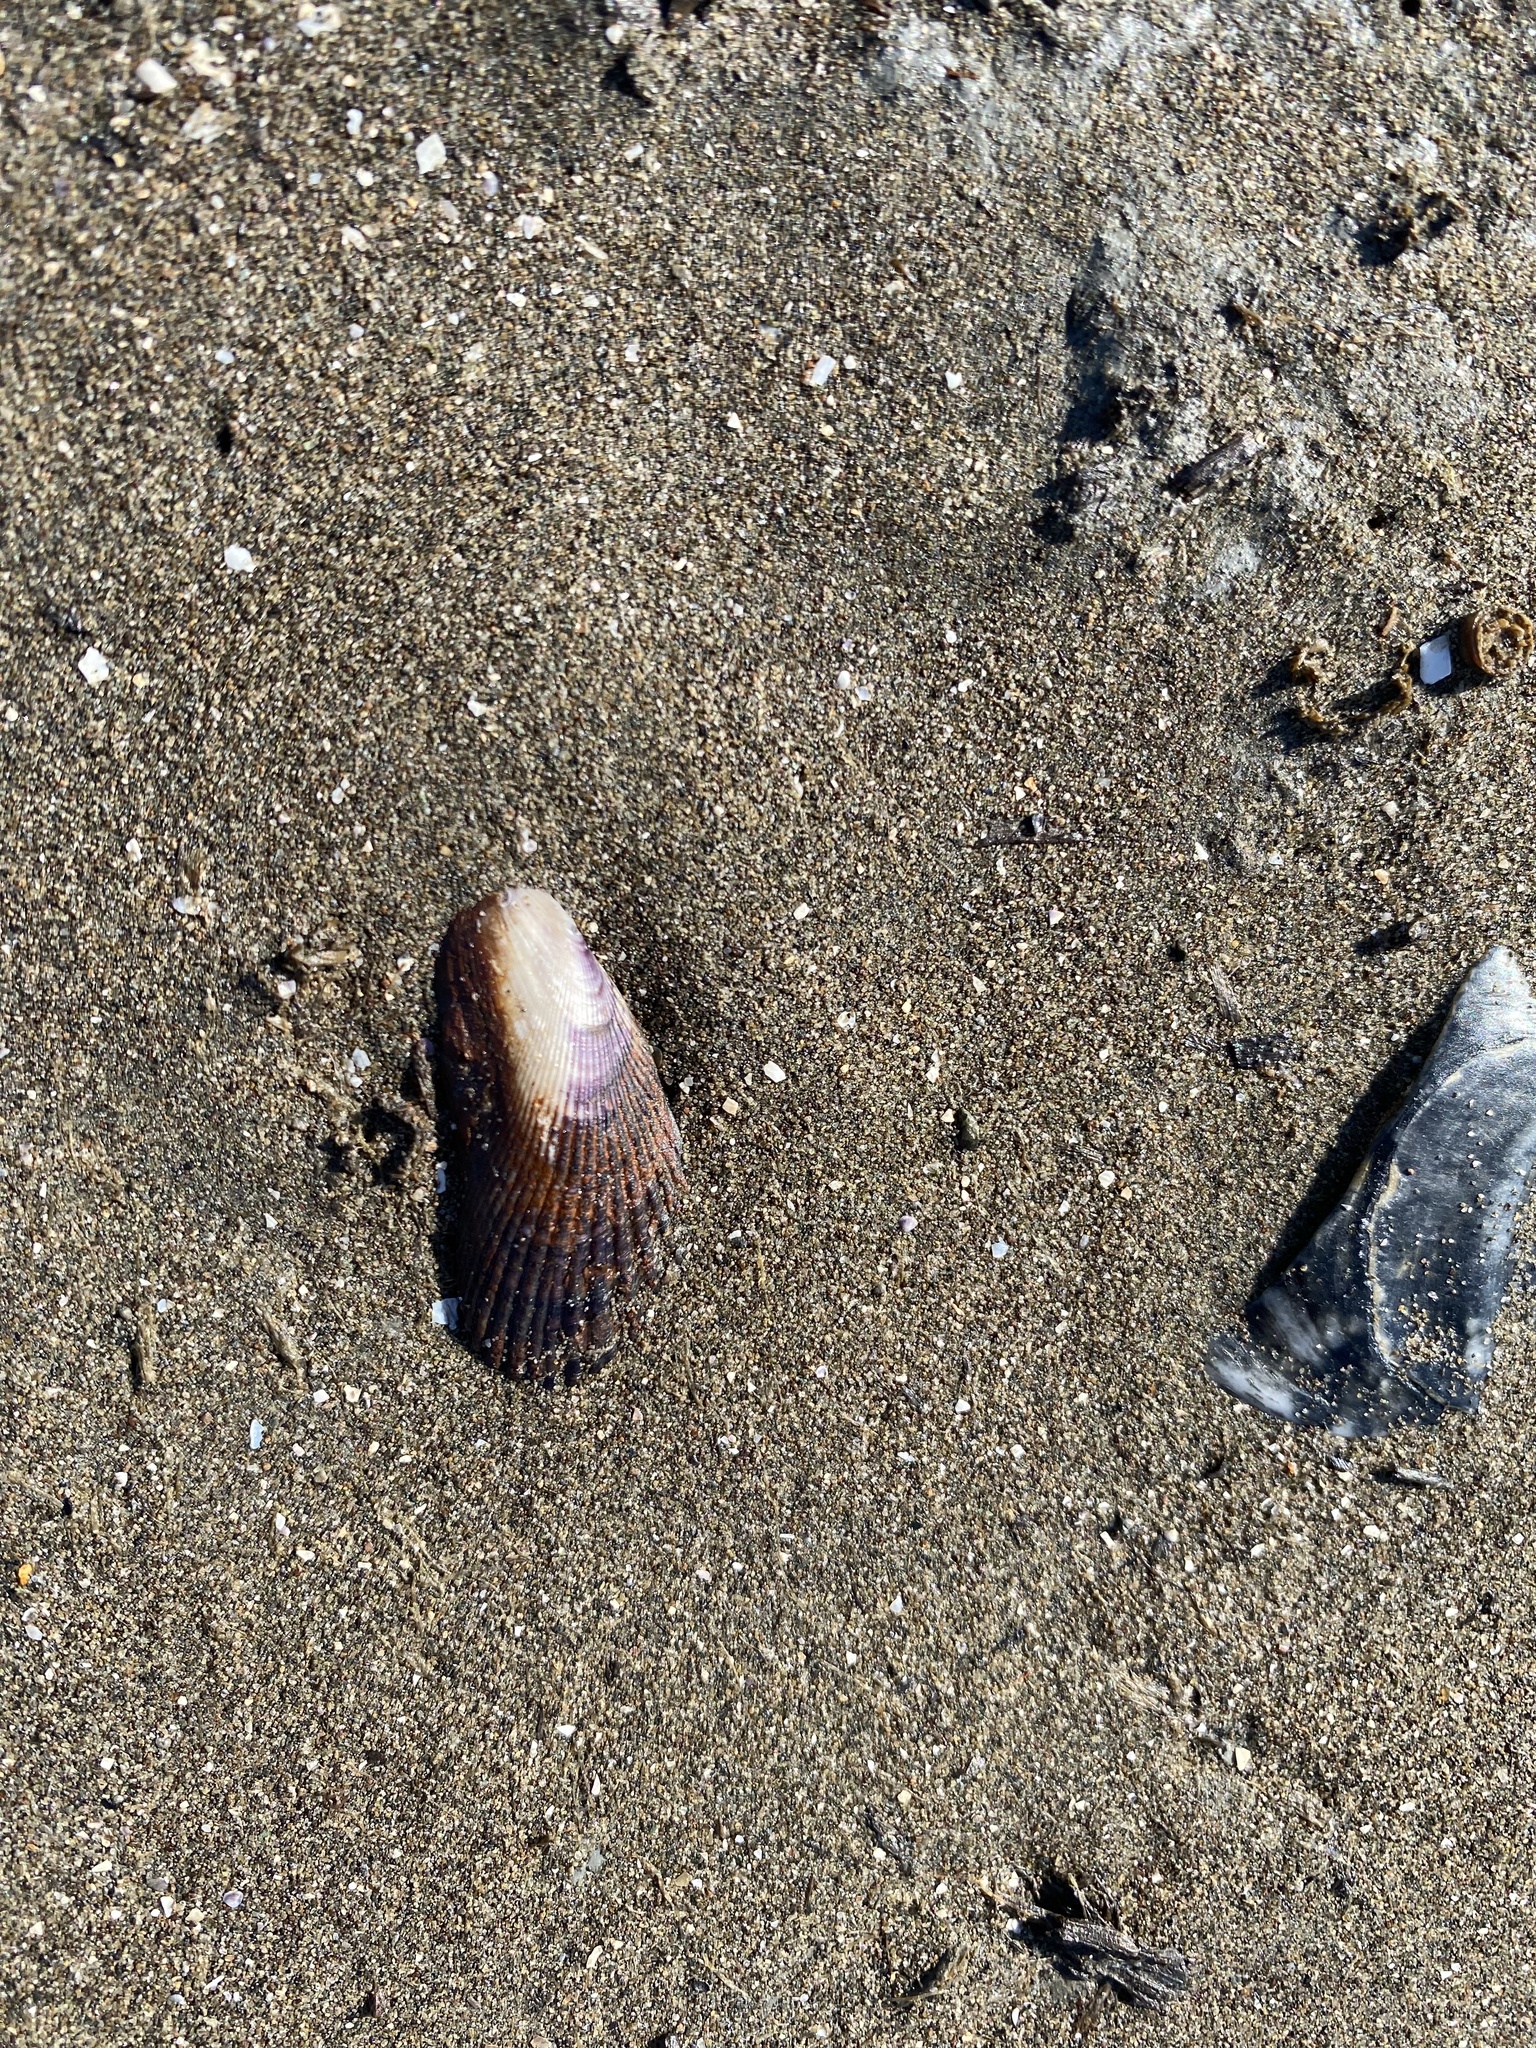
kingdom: Animalia
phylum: Mollusca
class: Bivalvia
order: Mytilida
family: Mytilidae
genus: Geukensia
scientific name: Geukensia demissa
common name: Ribbed mussel
